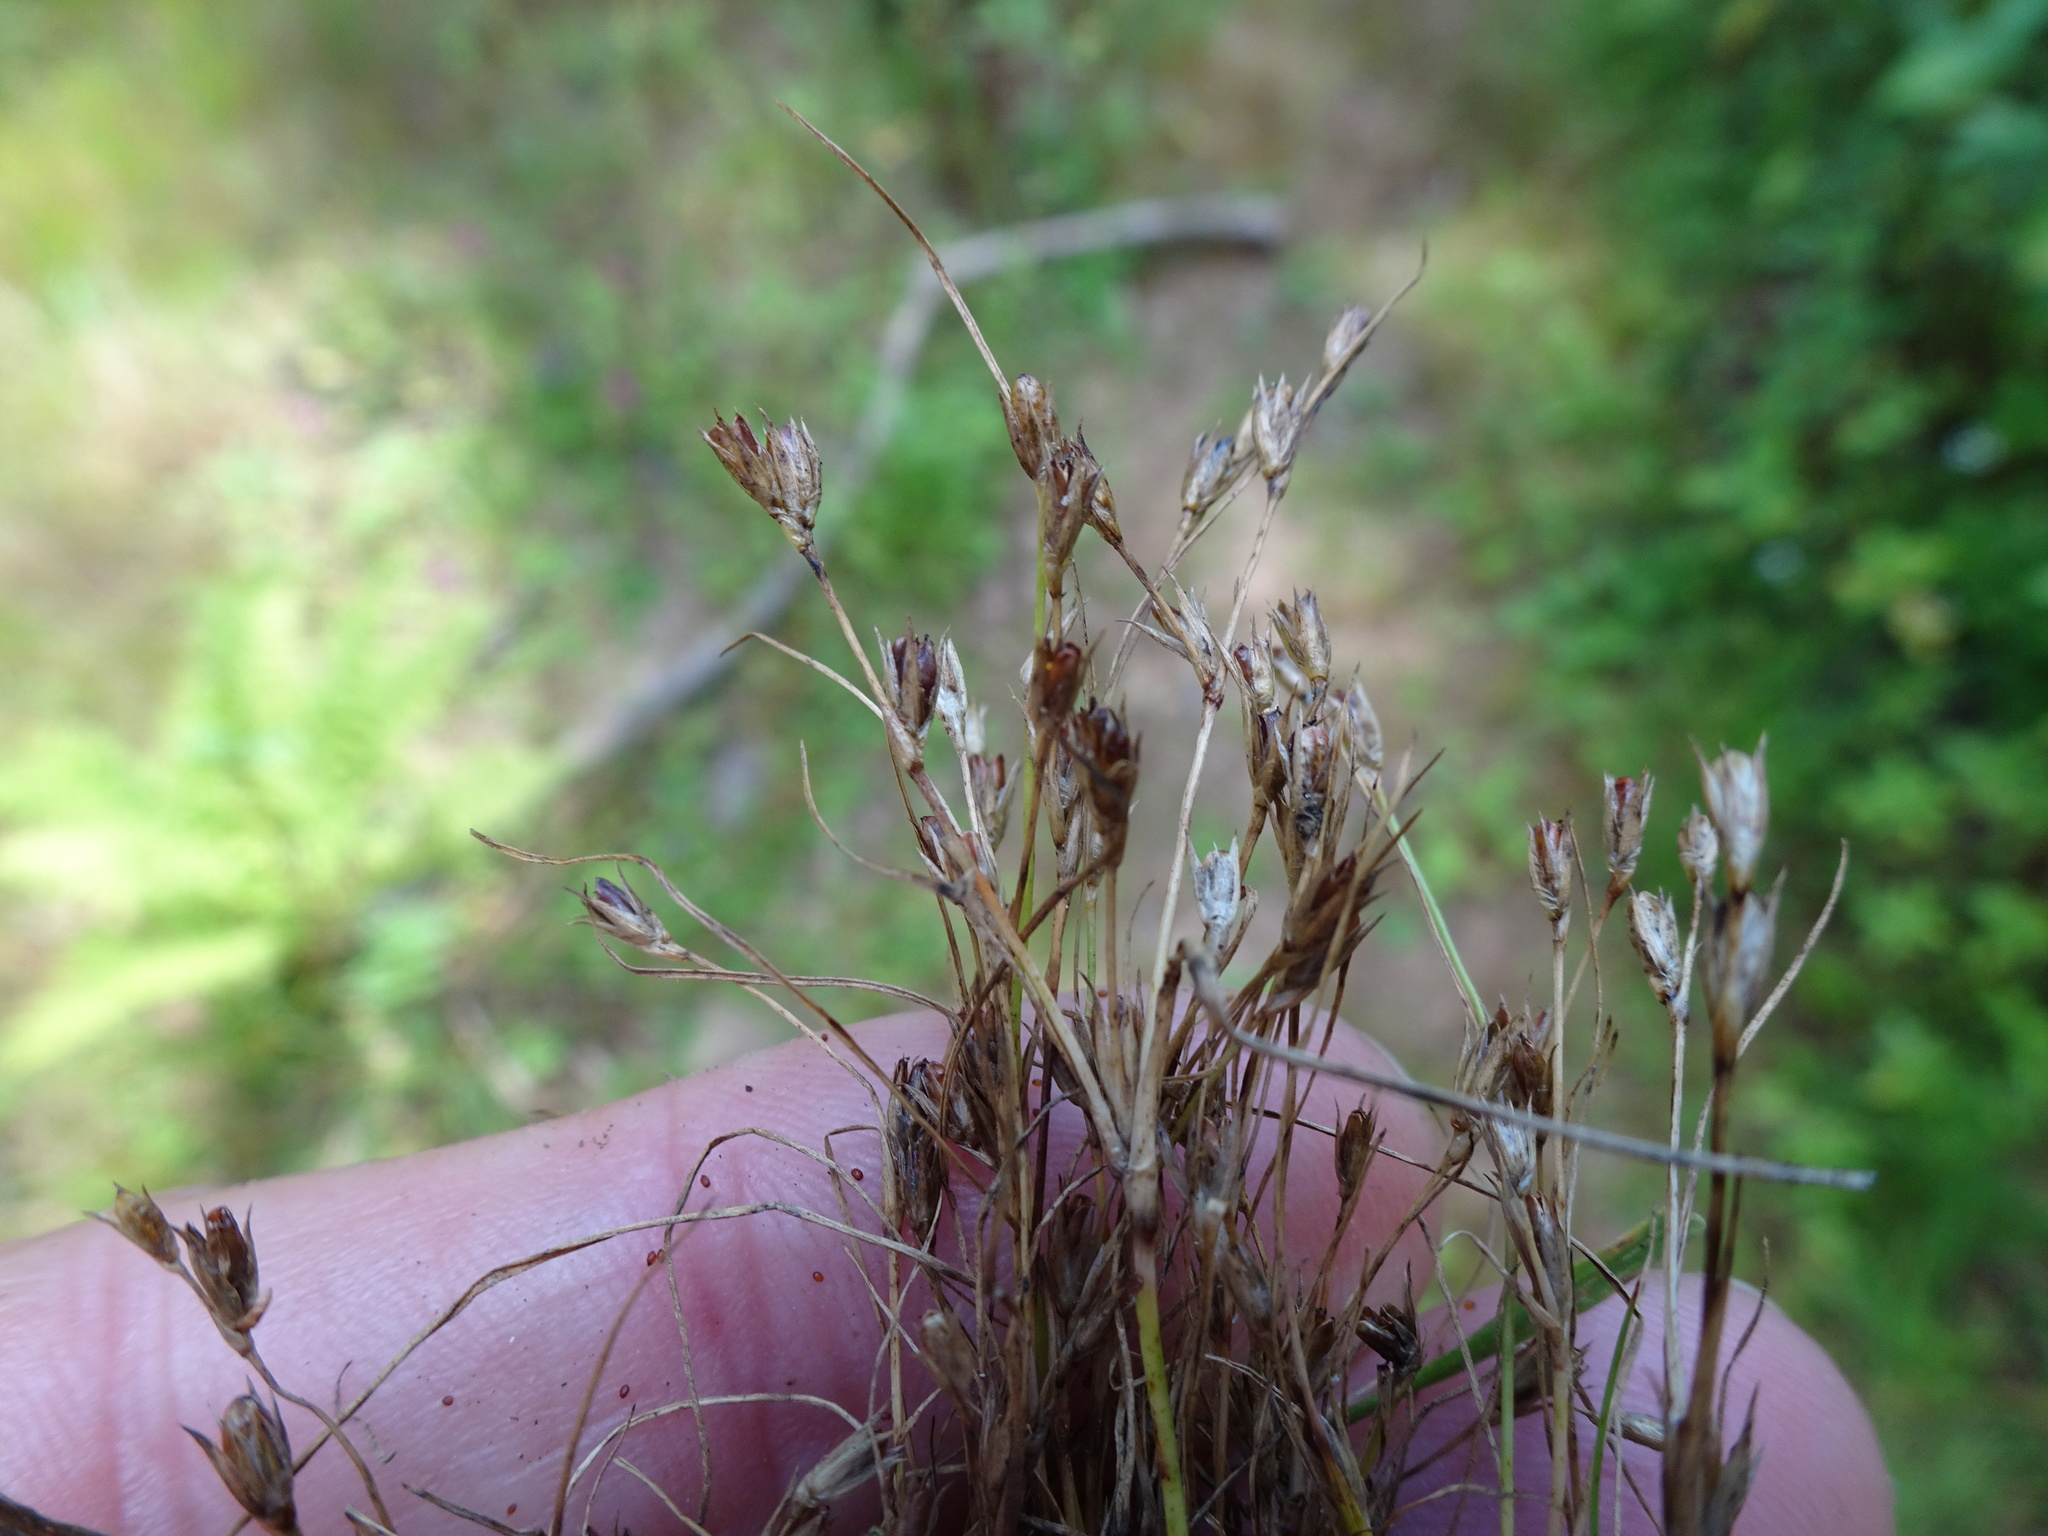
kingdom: Plantae
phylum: Tracheophyta
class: Liliopsida
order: Poales
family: Juncaceae
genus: Juncus
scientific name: Juncus bufonius
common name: Toad rush
